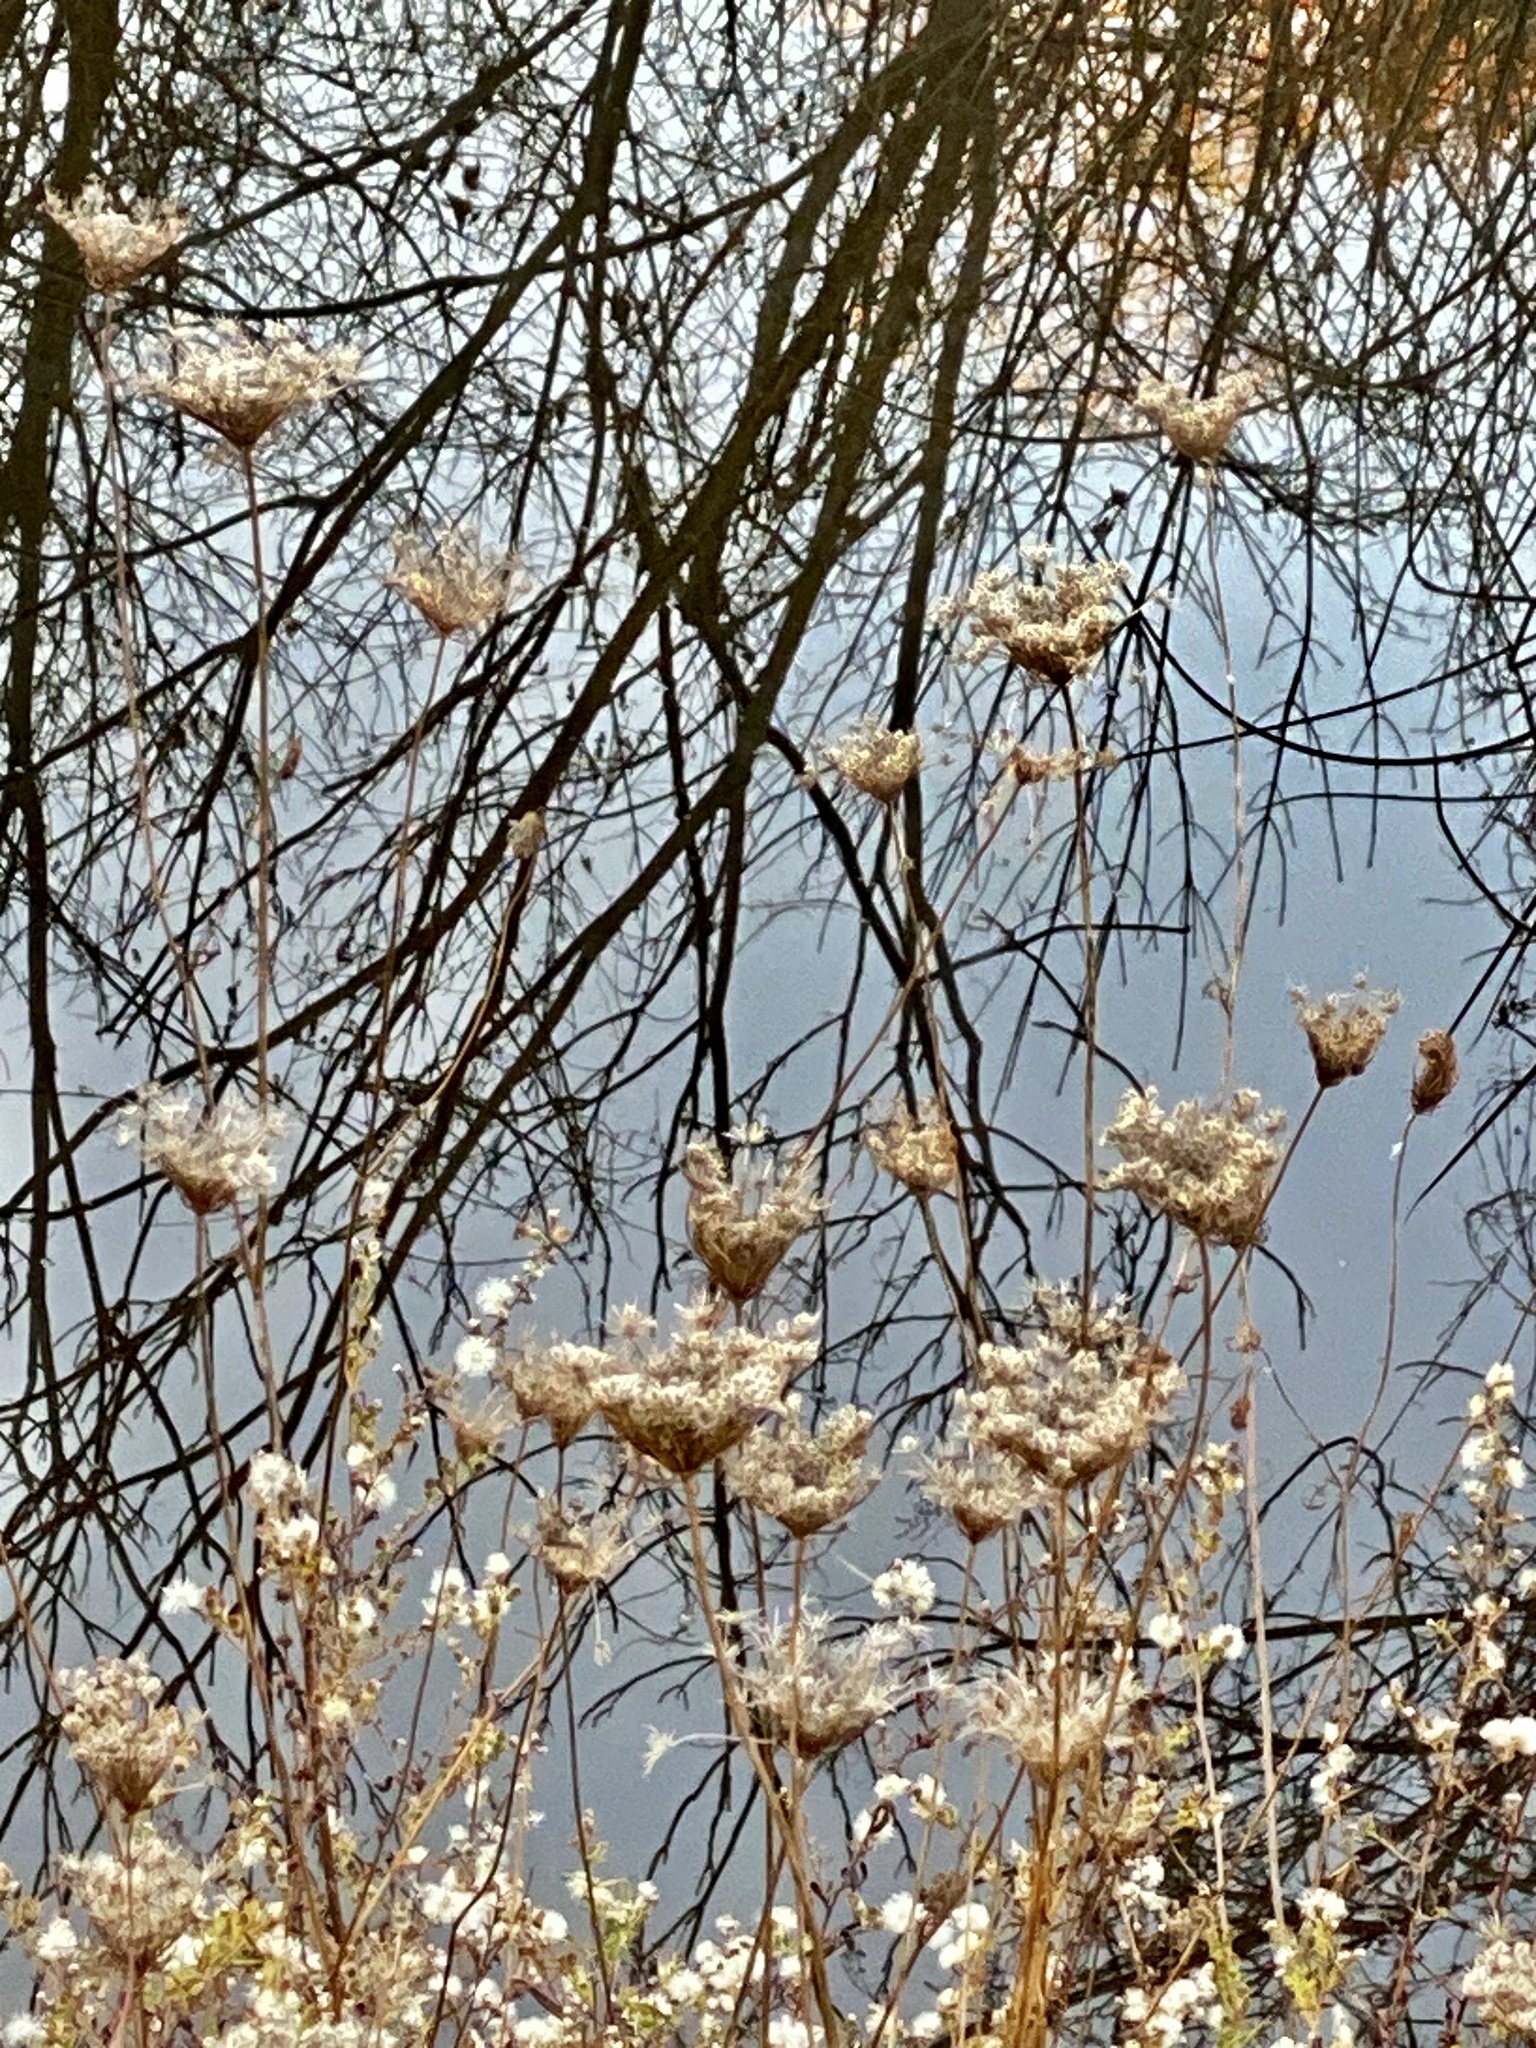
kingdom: Plantae
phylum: Tracheophyta
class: Magnoliopsida
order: Apiales
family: Apiaceae
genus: Daucus
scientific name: Daucus carota
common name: Wild carrot
